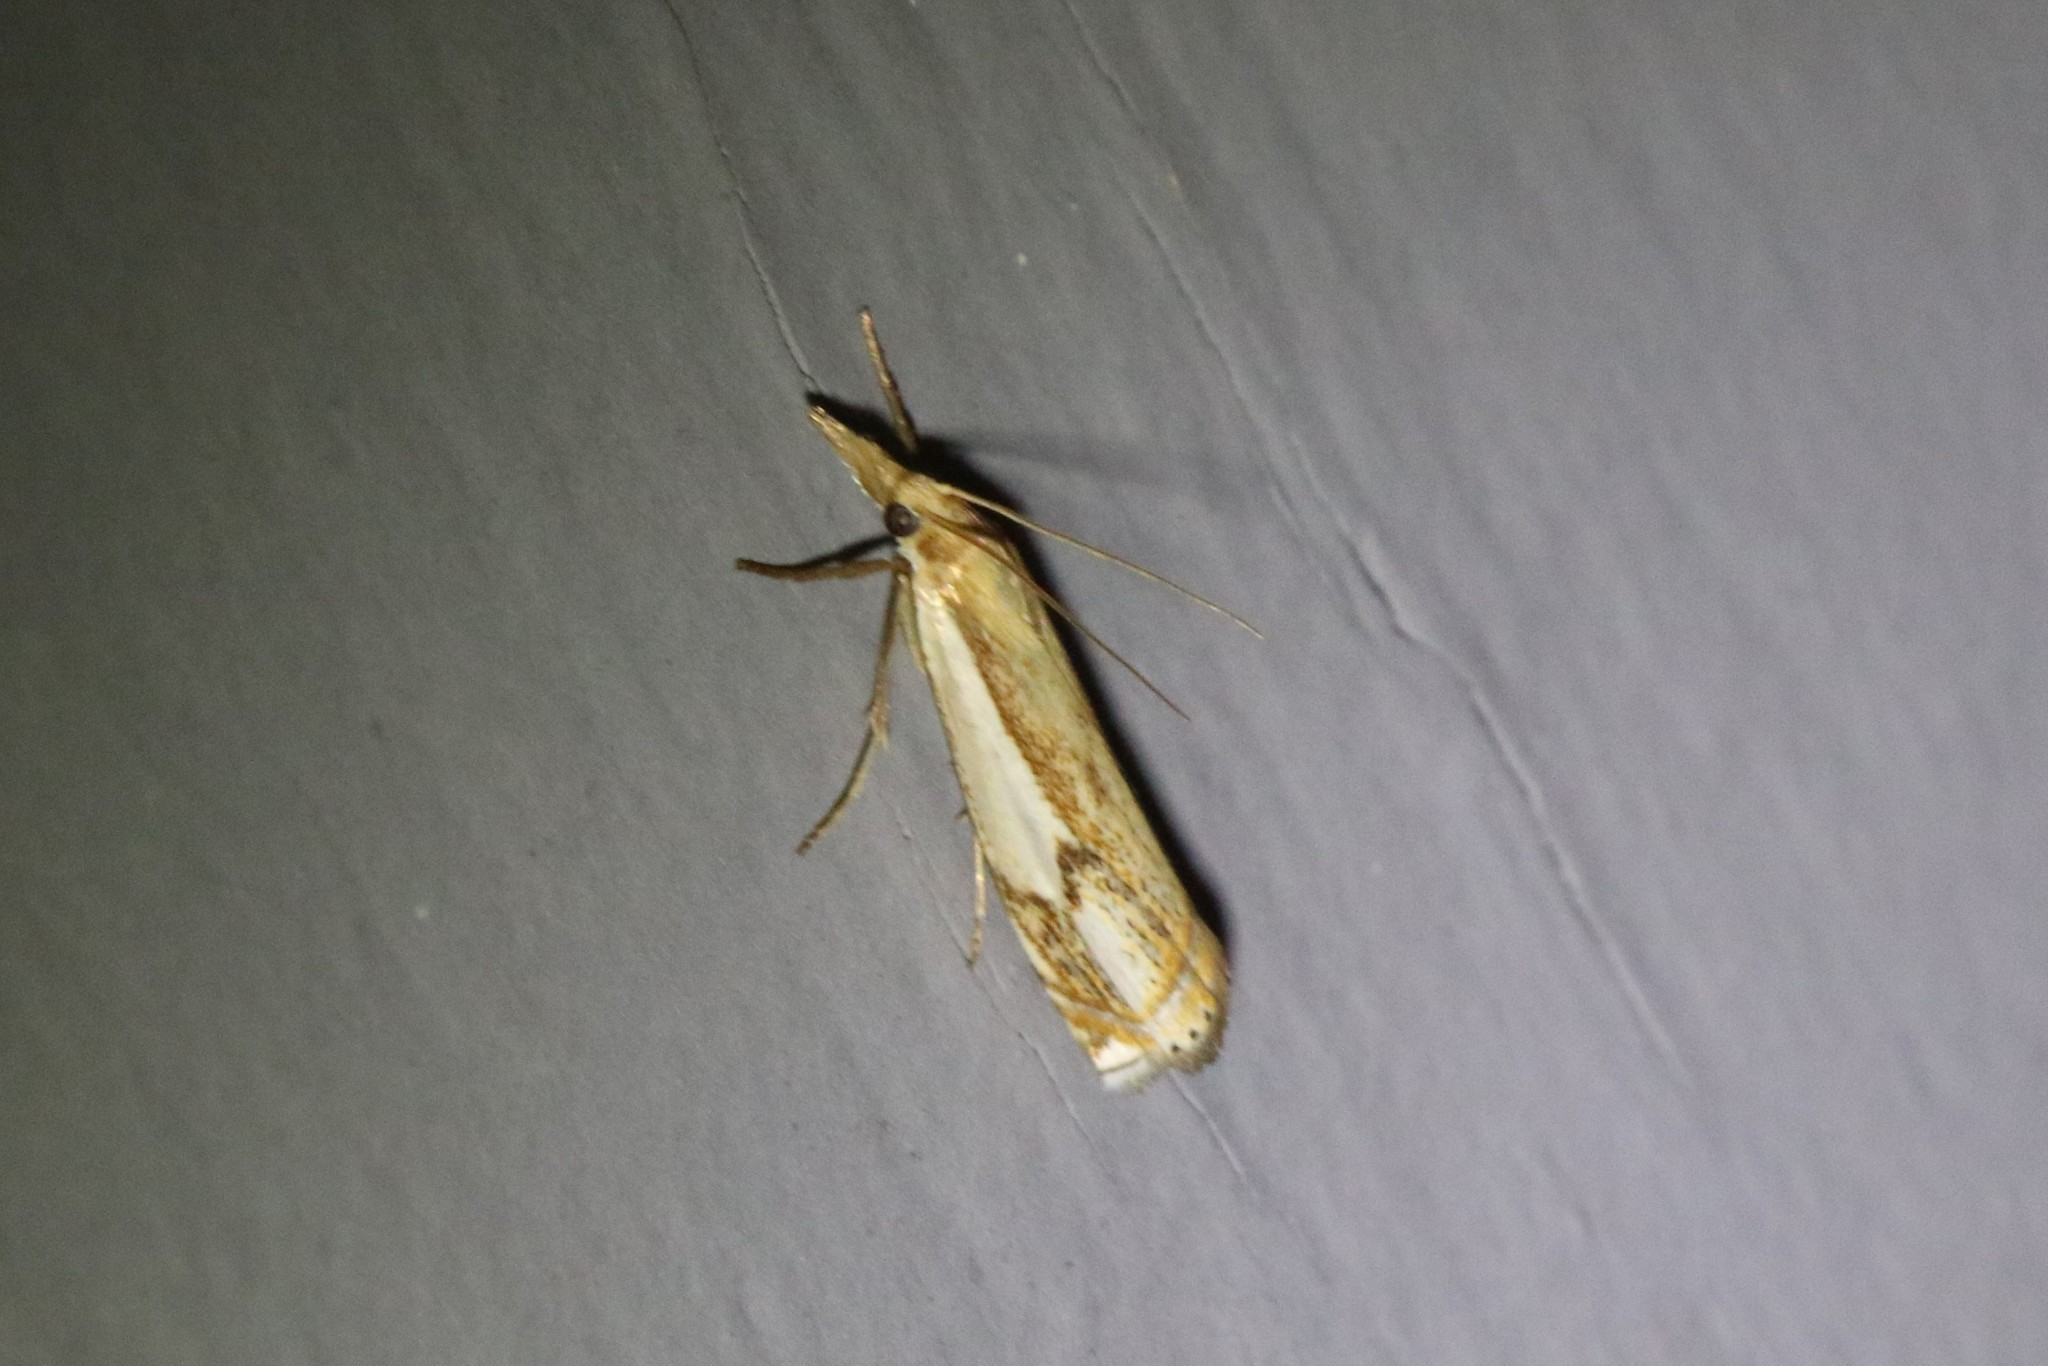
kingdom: Animalia
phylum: Arthropoda
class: Insecta
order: Lepidoptera
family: Crambidae
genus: Crambus
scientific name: Crambus agitatellus
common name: Double-banded grass-veneer
